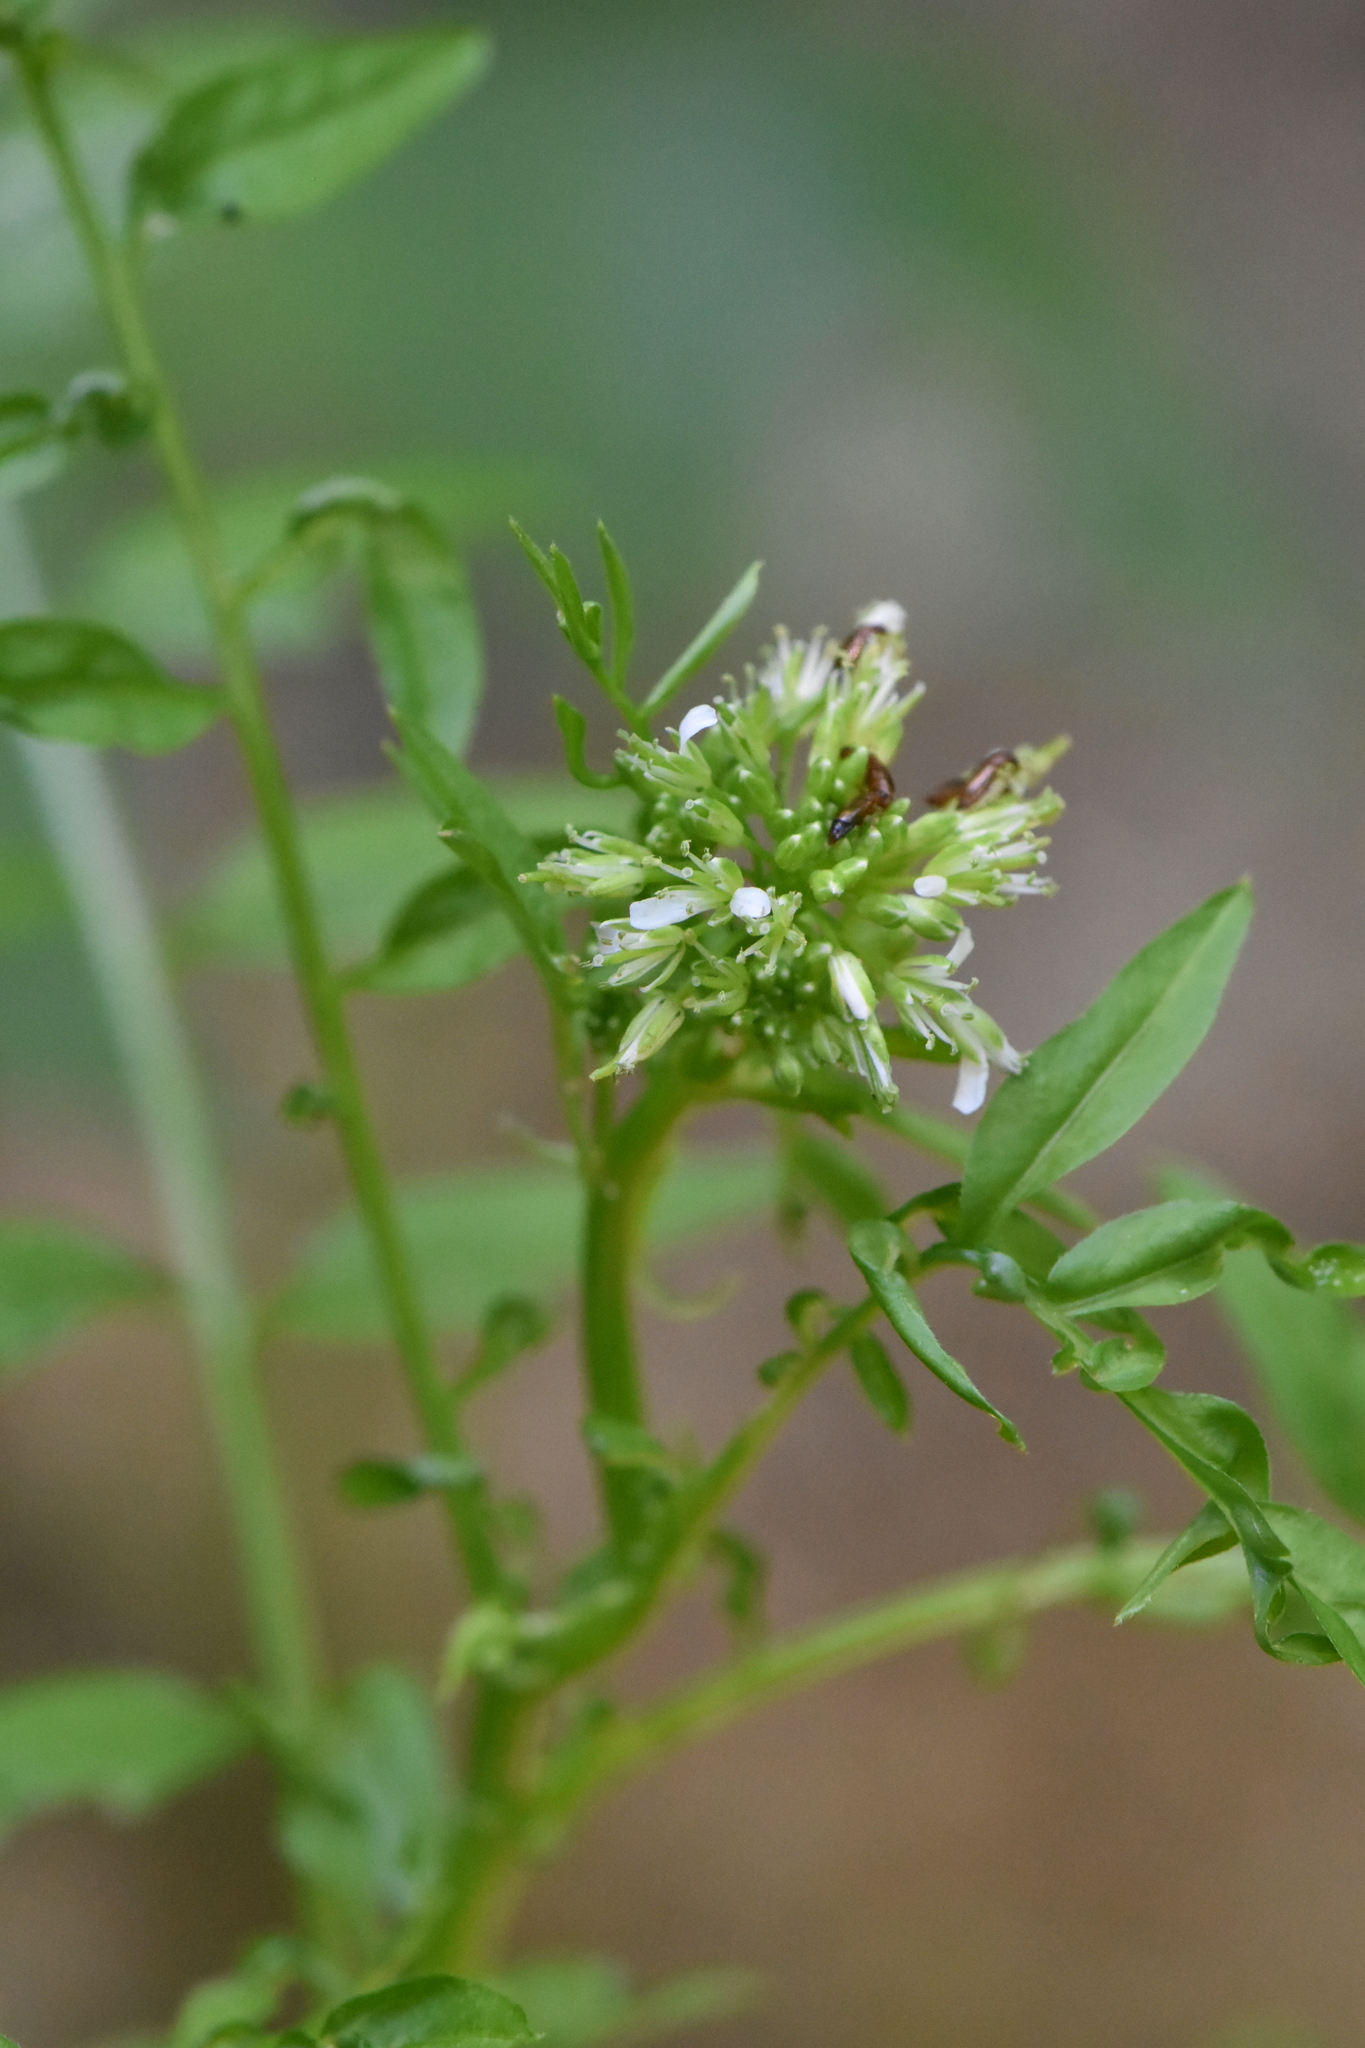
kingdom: Plantae
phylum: Tracheophyta
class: Magnoliopsida
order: Brassicales
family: Brassicaceae
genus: Cardamine
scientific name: Cardamine impatiens
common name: Narrow-leaved bitter-cress
